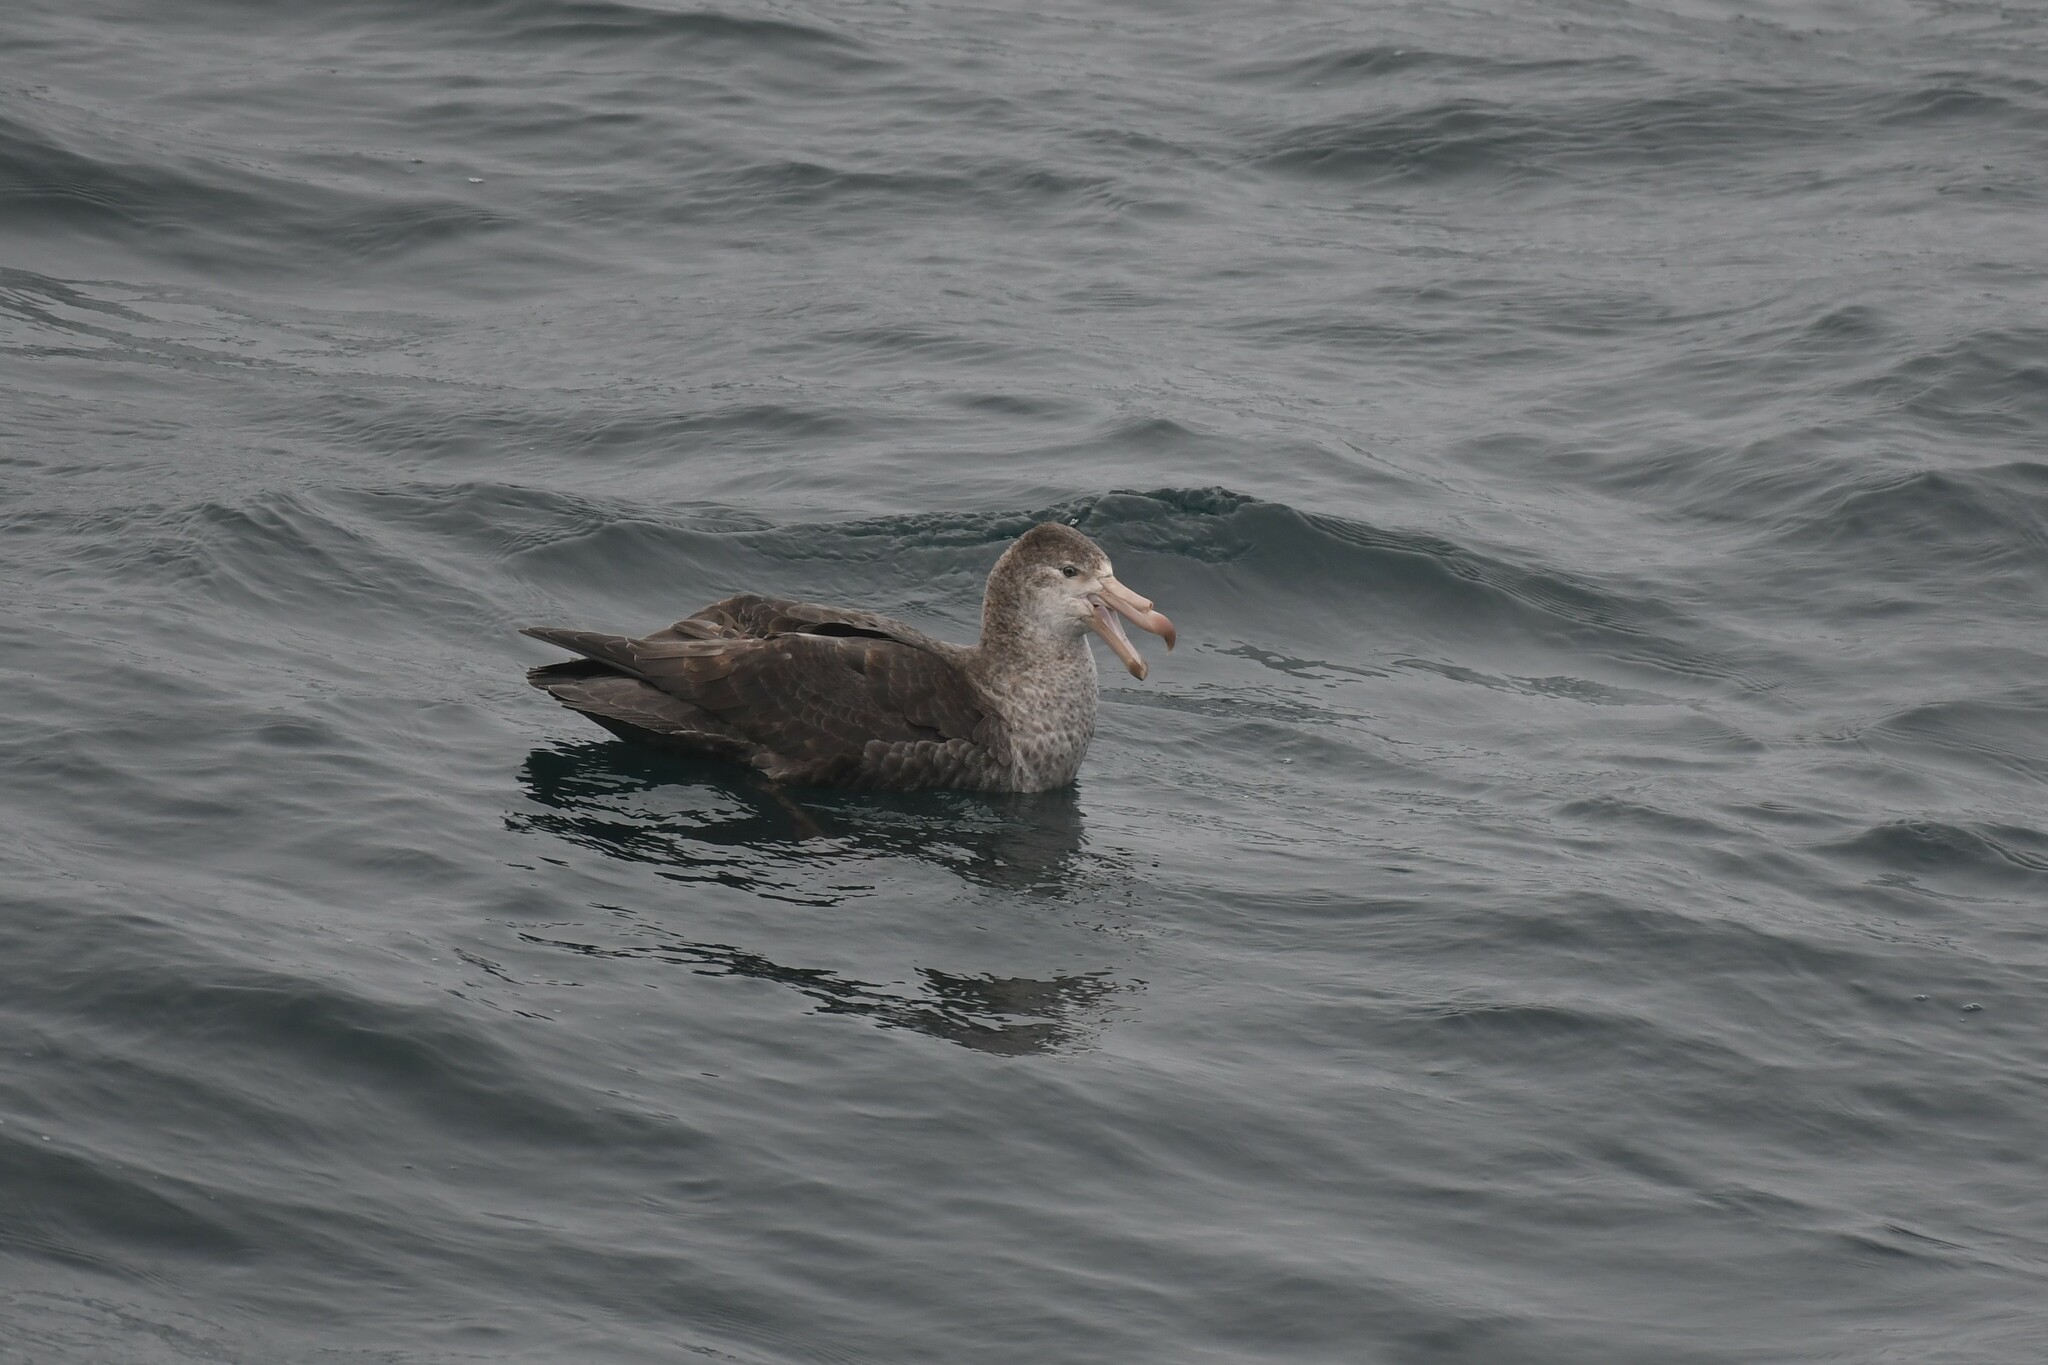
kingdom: Animalia
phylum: Chordata
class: Aves
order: Procellariiformes
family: Procellariidae
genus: Macronectes
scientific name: Macronectes halli
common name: Northern giant petrel
